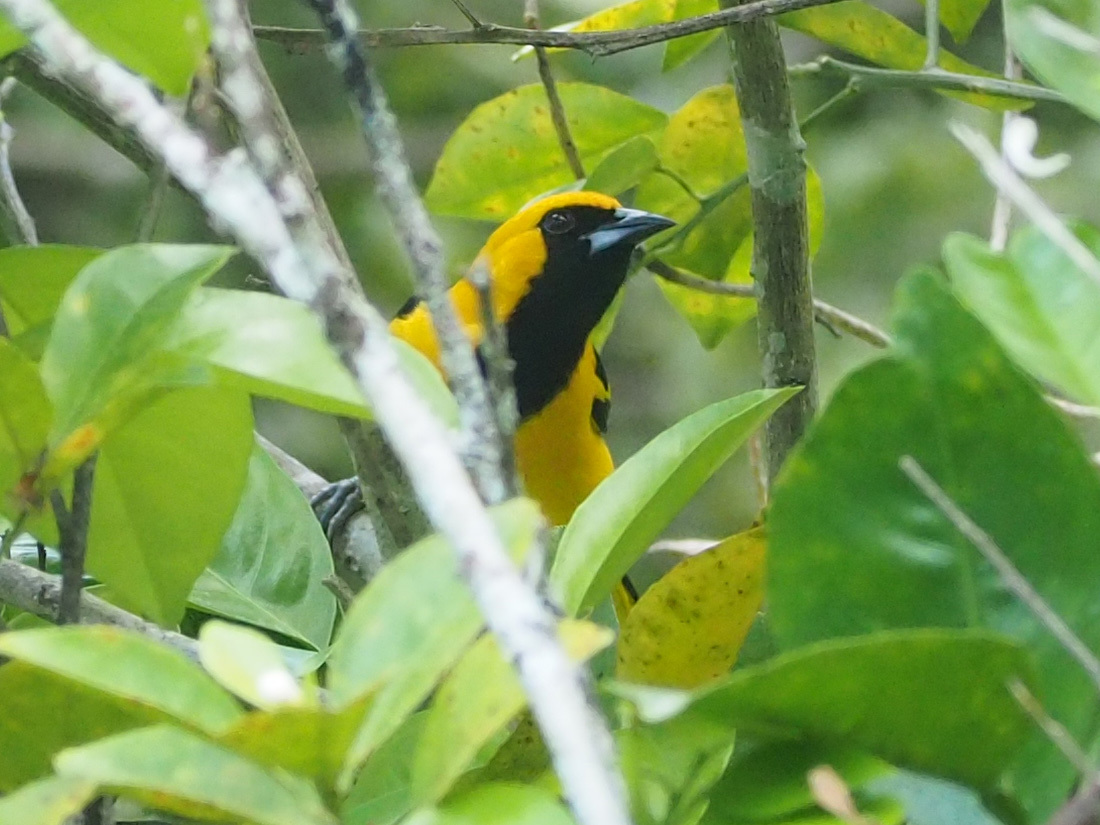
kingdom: Animalia
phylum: Chordata
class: Aves
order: Passeriformes
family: Icteridae
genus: Icterus
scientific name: Icterus mesomelas
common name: Yellow-tailed oriole
